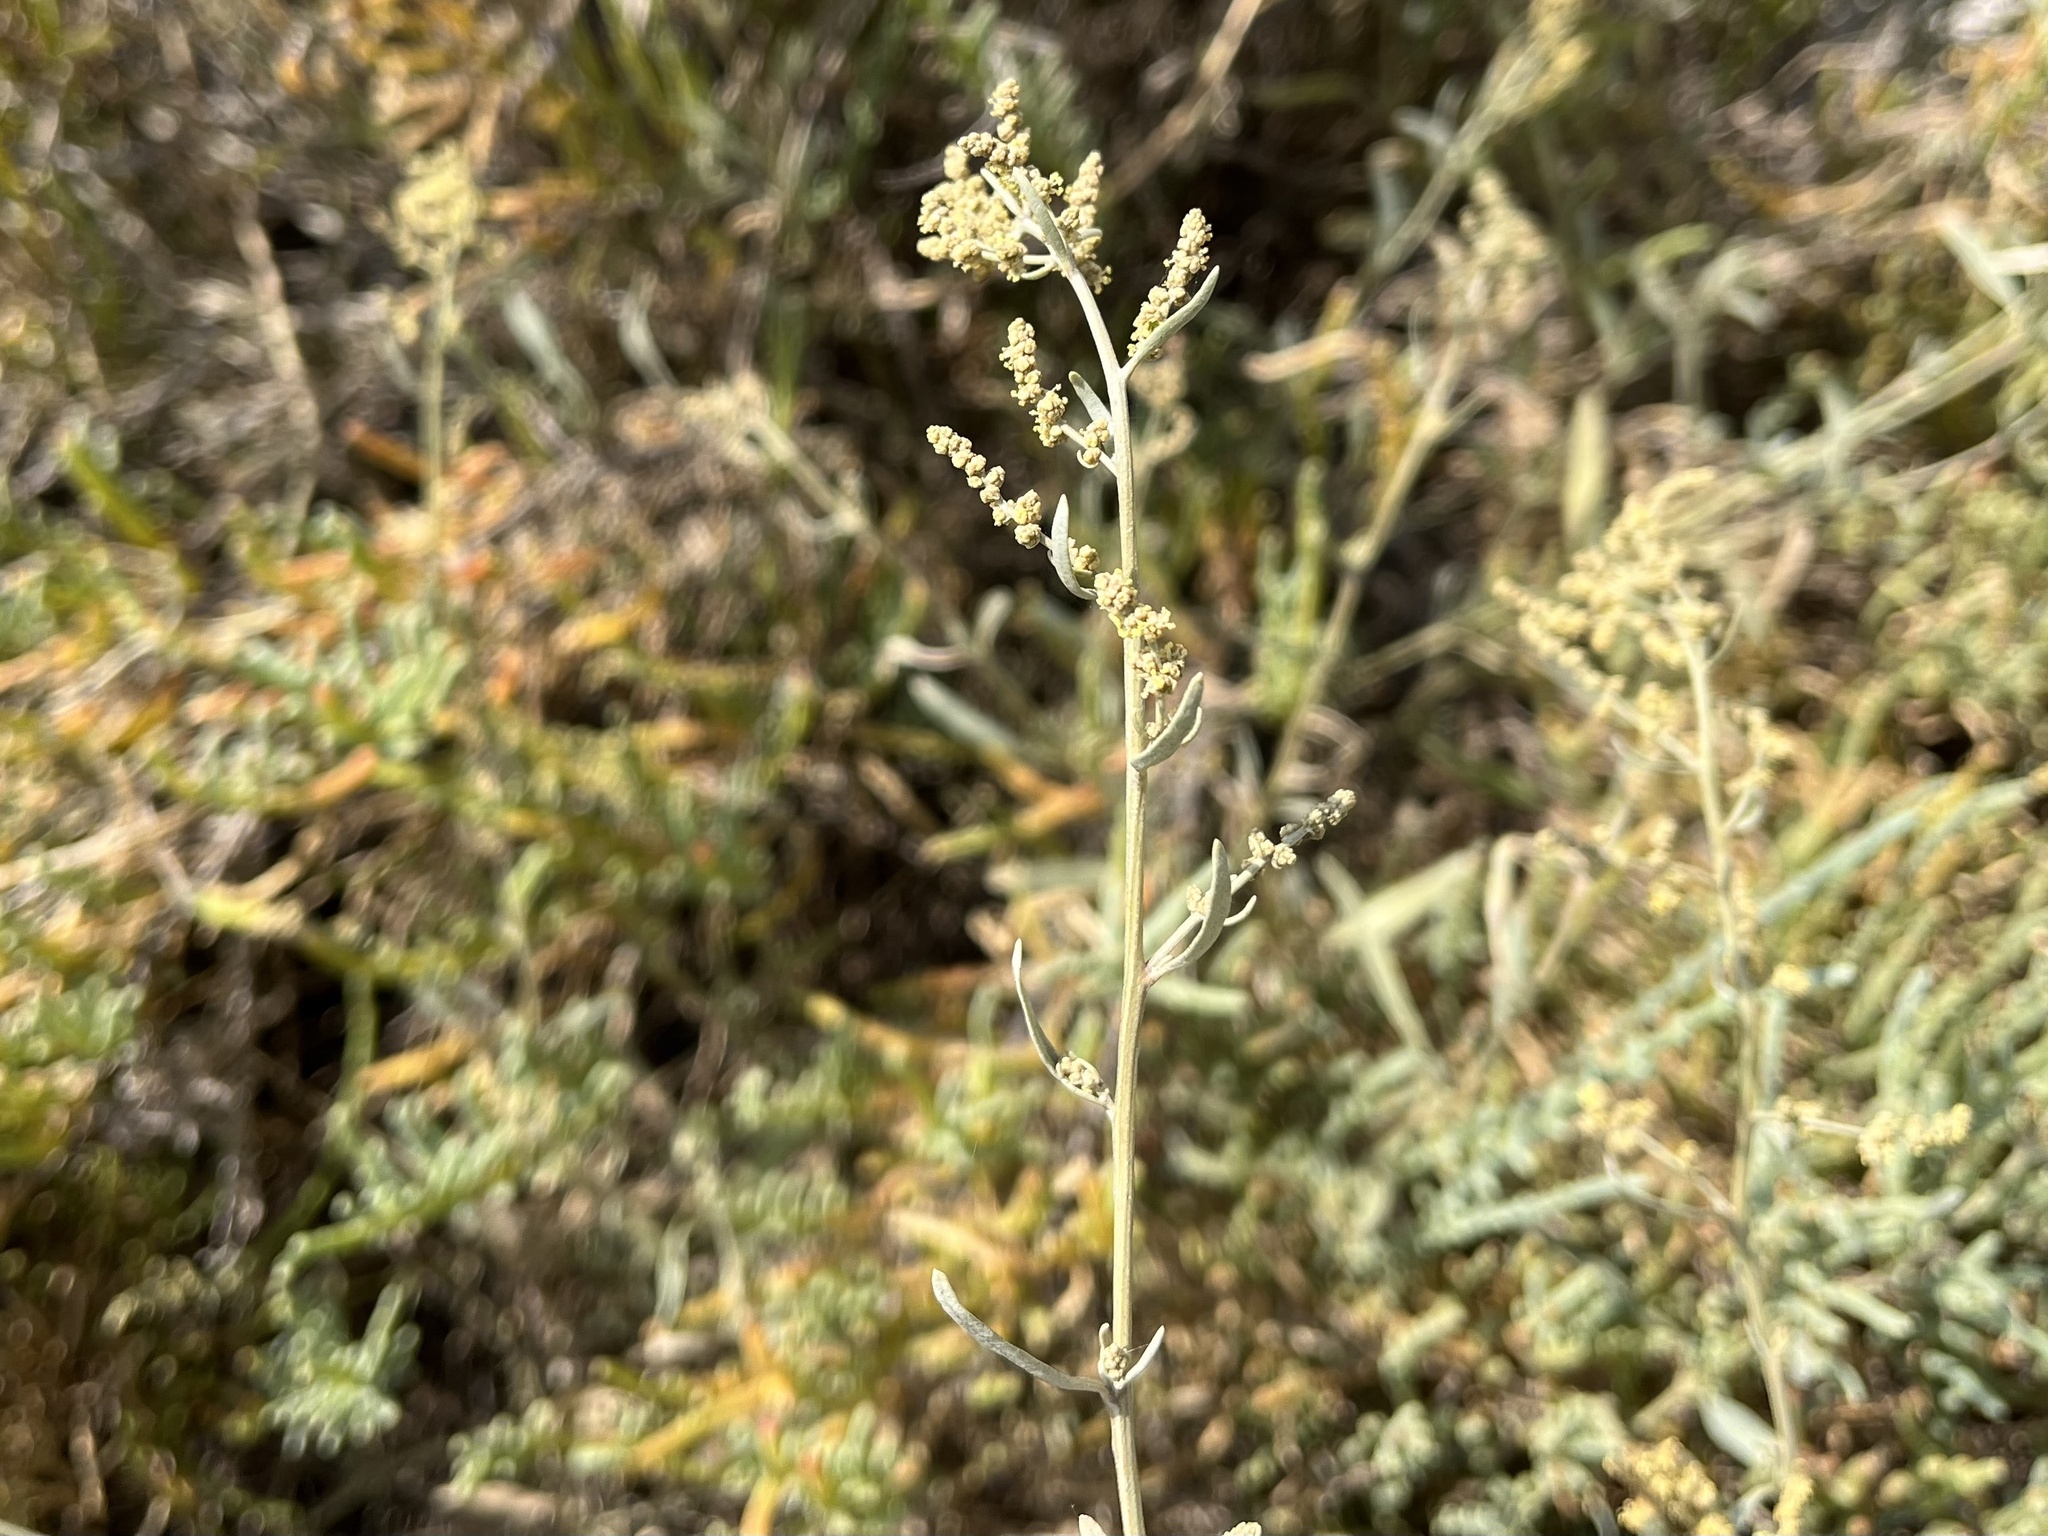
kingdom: Plantae
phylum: Tracheophyta
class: Magnoliopsida
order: Caryophyllales
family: Amaranthaceae
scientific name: Amaranthaceae
